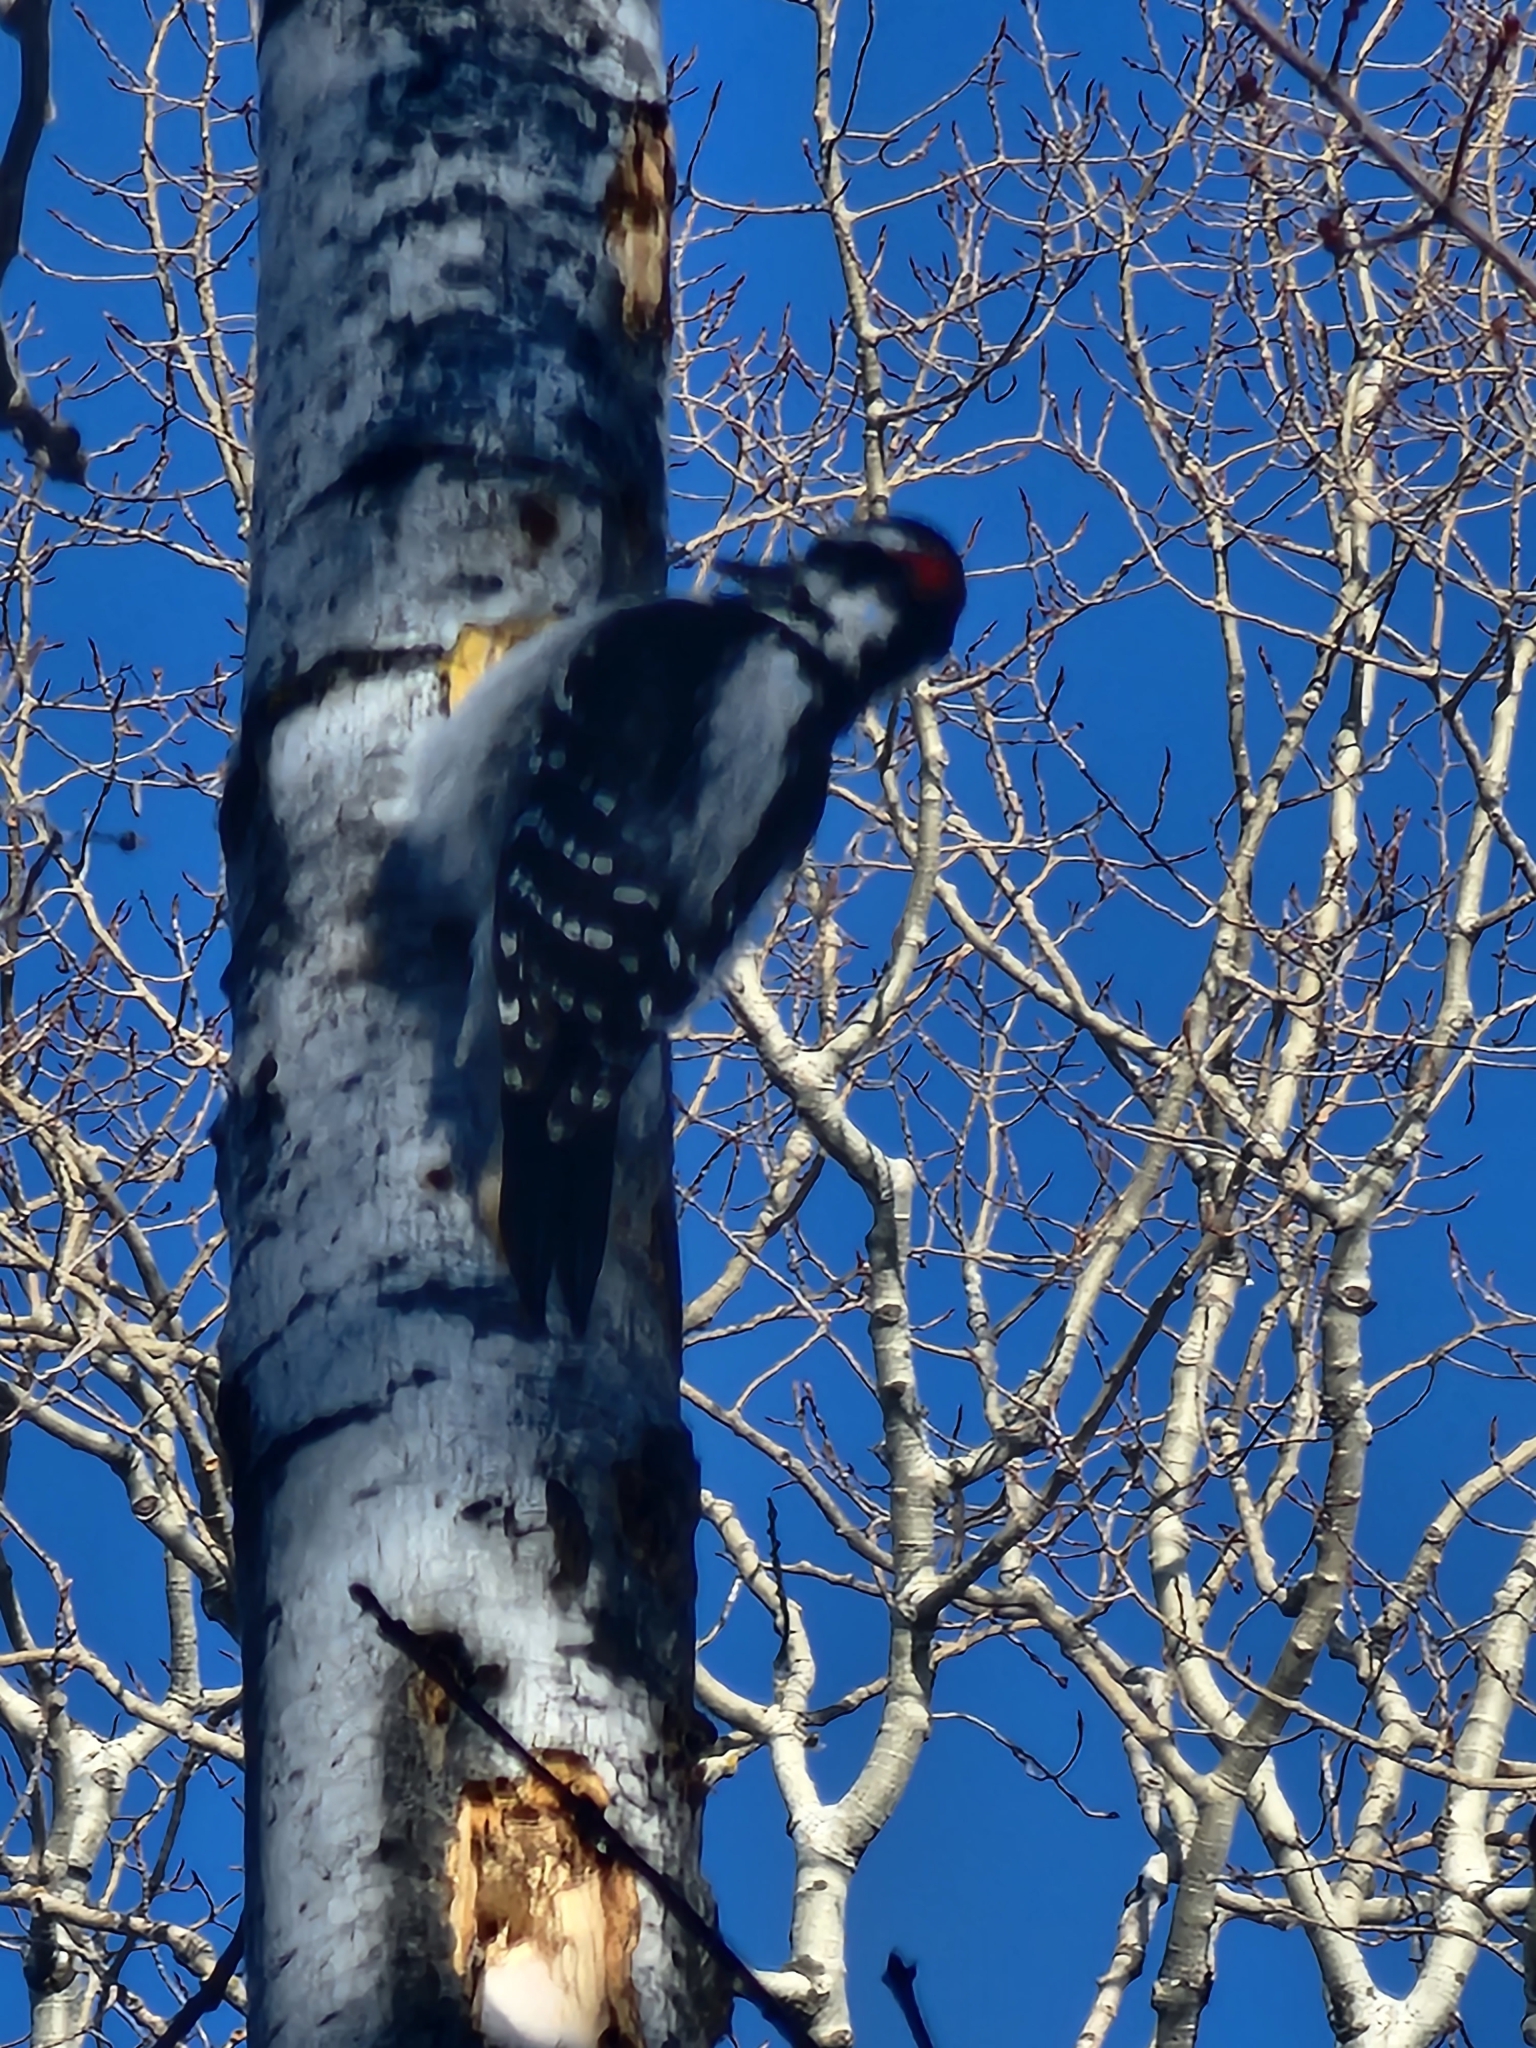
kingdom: Animalia
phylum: Chordata
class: Aves
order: Piciformes
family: Picidae
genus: Leuconotopicus
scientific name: Leuconotopicus villosus
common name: Hairy woodpecker
